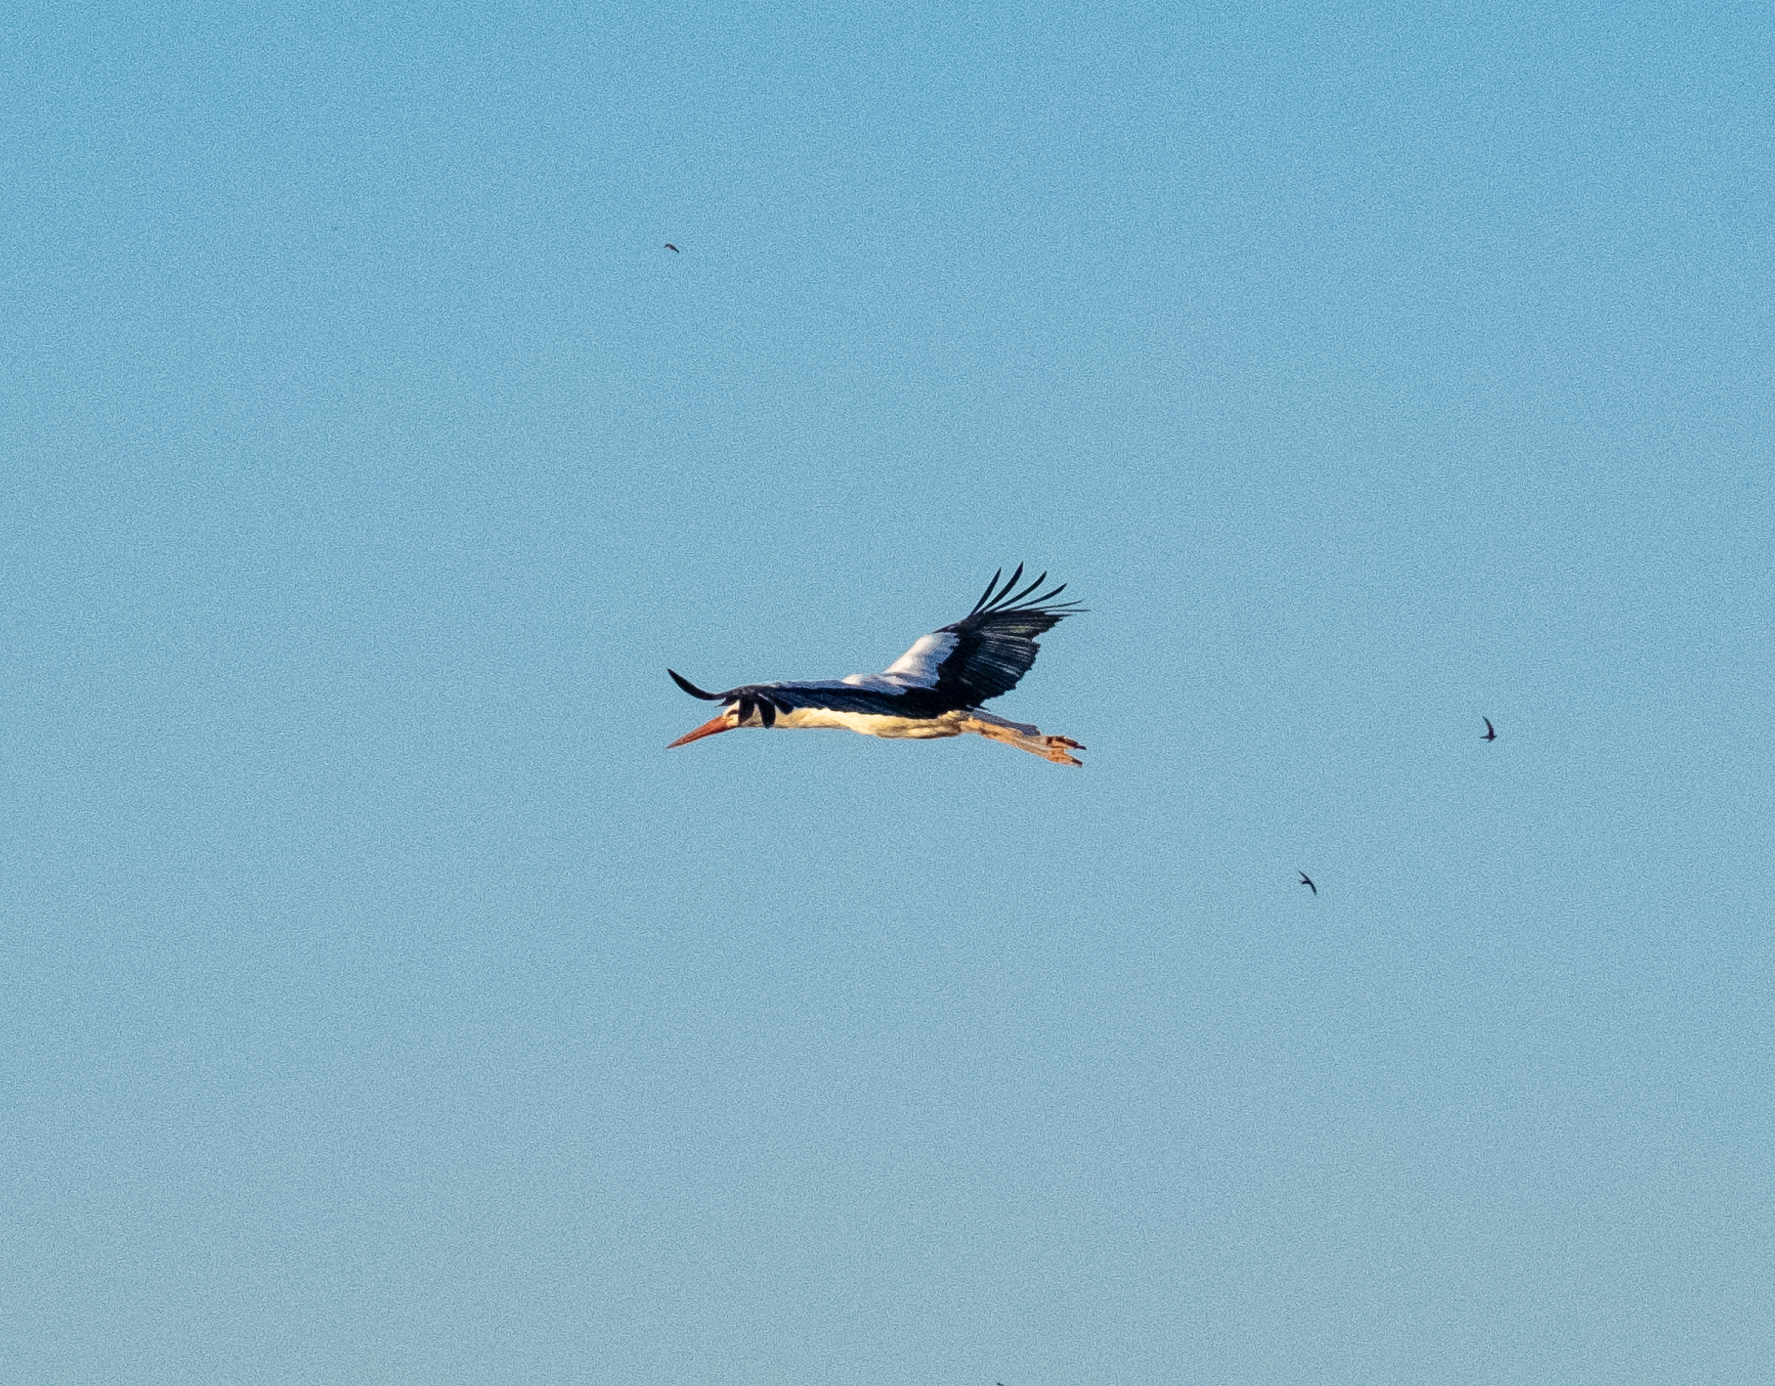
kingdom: Animalia
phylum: Chordata
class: Aves
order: Ciconiiformes
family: Ciconiidae
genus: Ciconia
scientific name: Ciconia ciconia
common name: White stork
